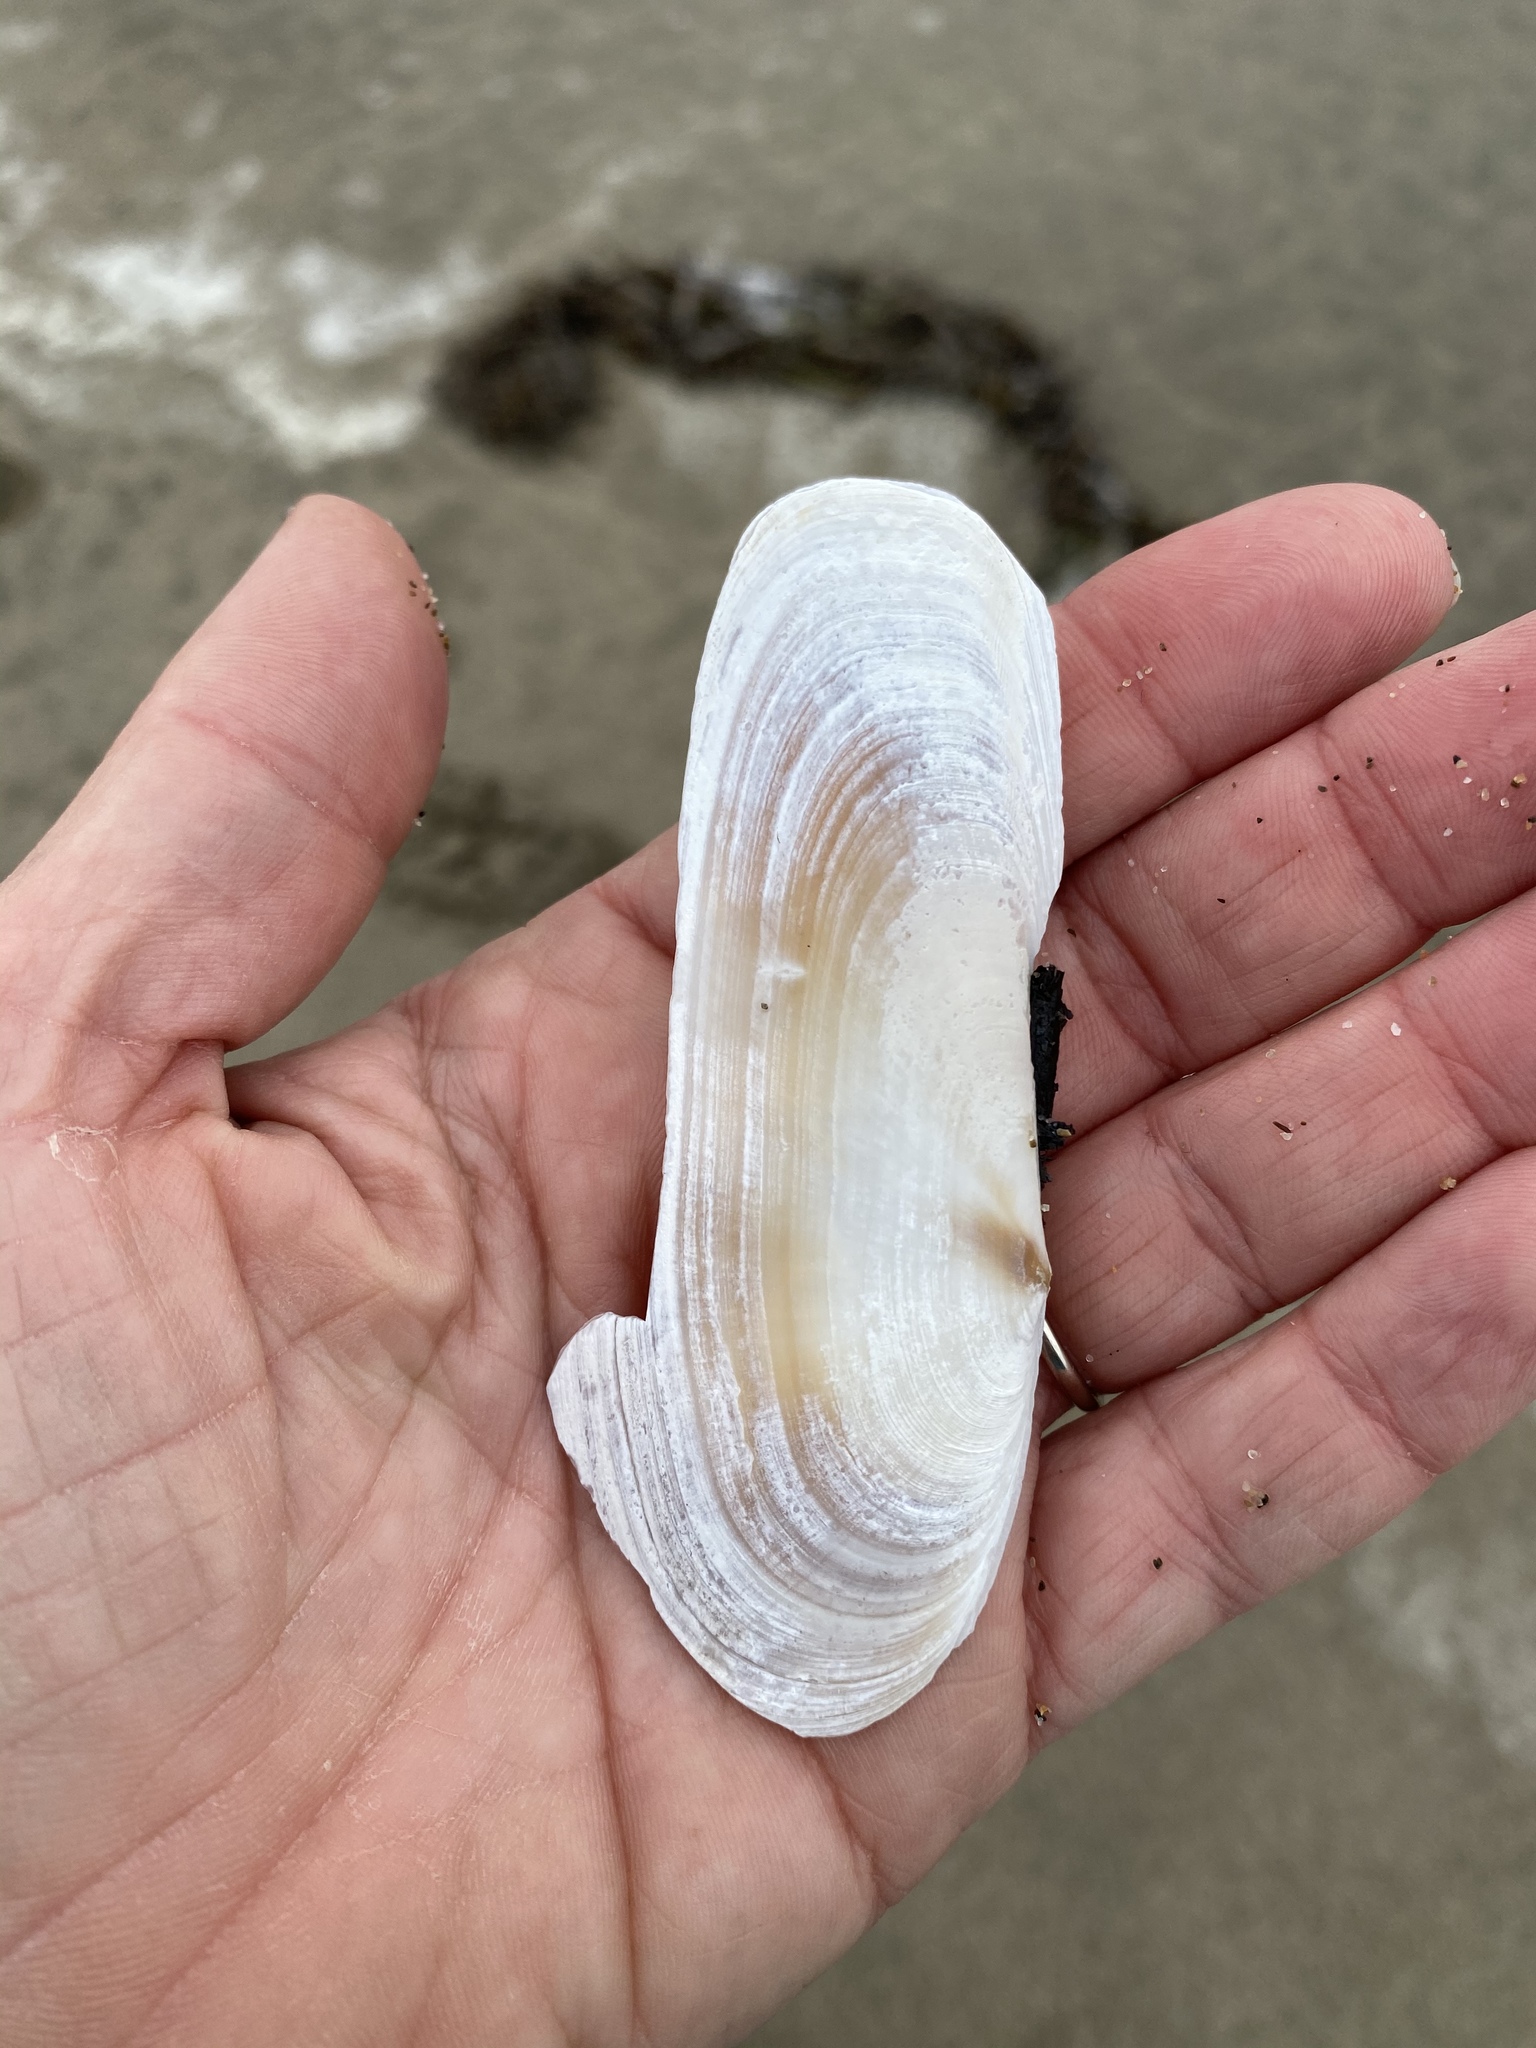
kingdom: Animalia
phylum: Mollusca
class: Bivalvia
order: Adapedonta
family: Pharidae
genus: Siliqua
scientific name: Siliqua patula
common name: Pacific razor clam
